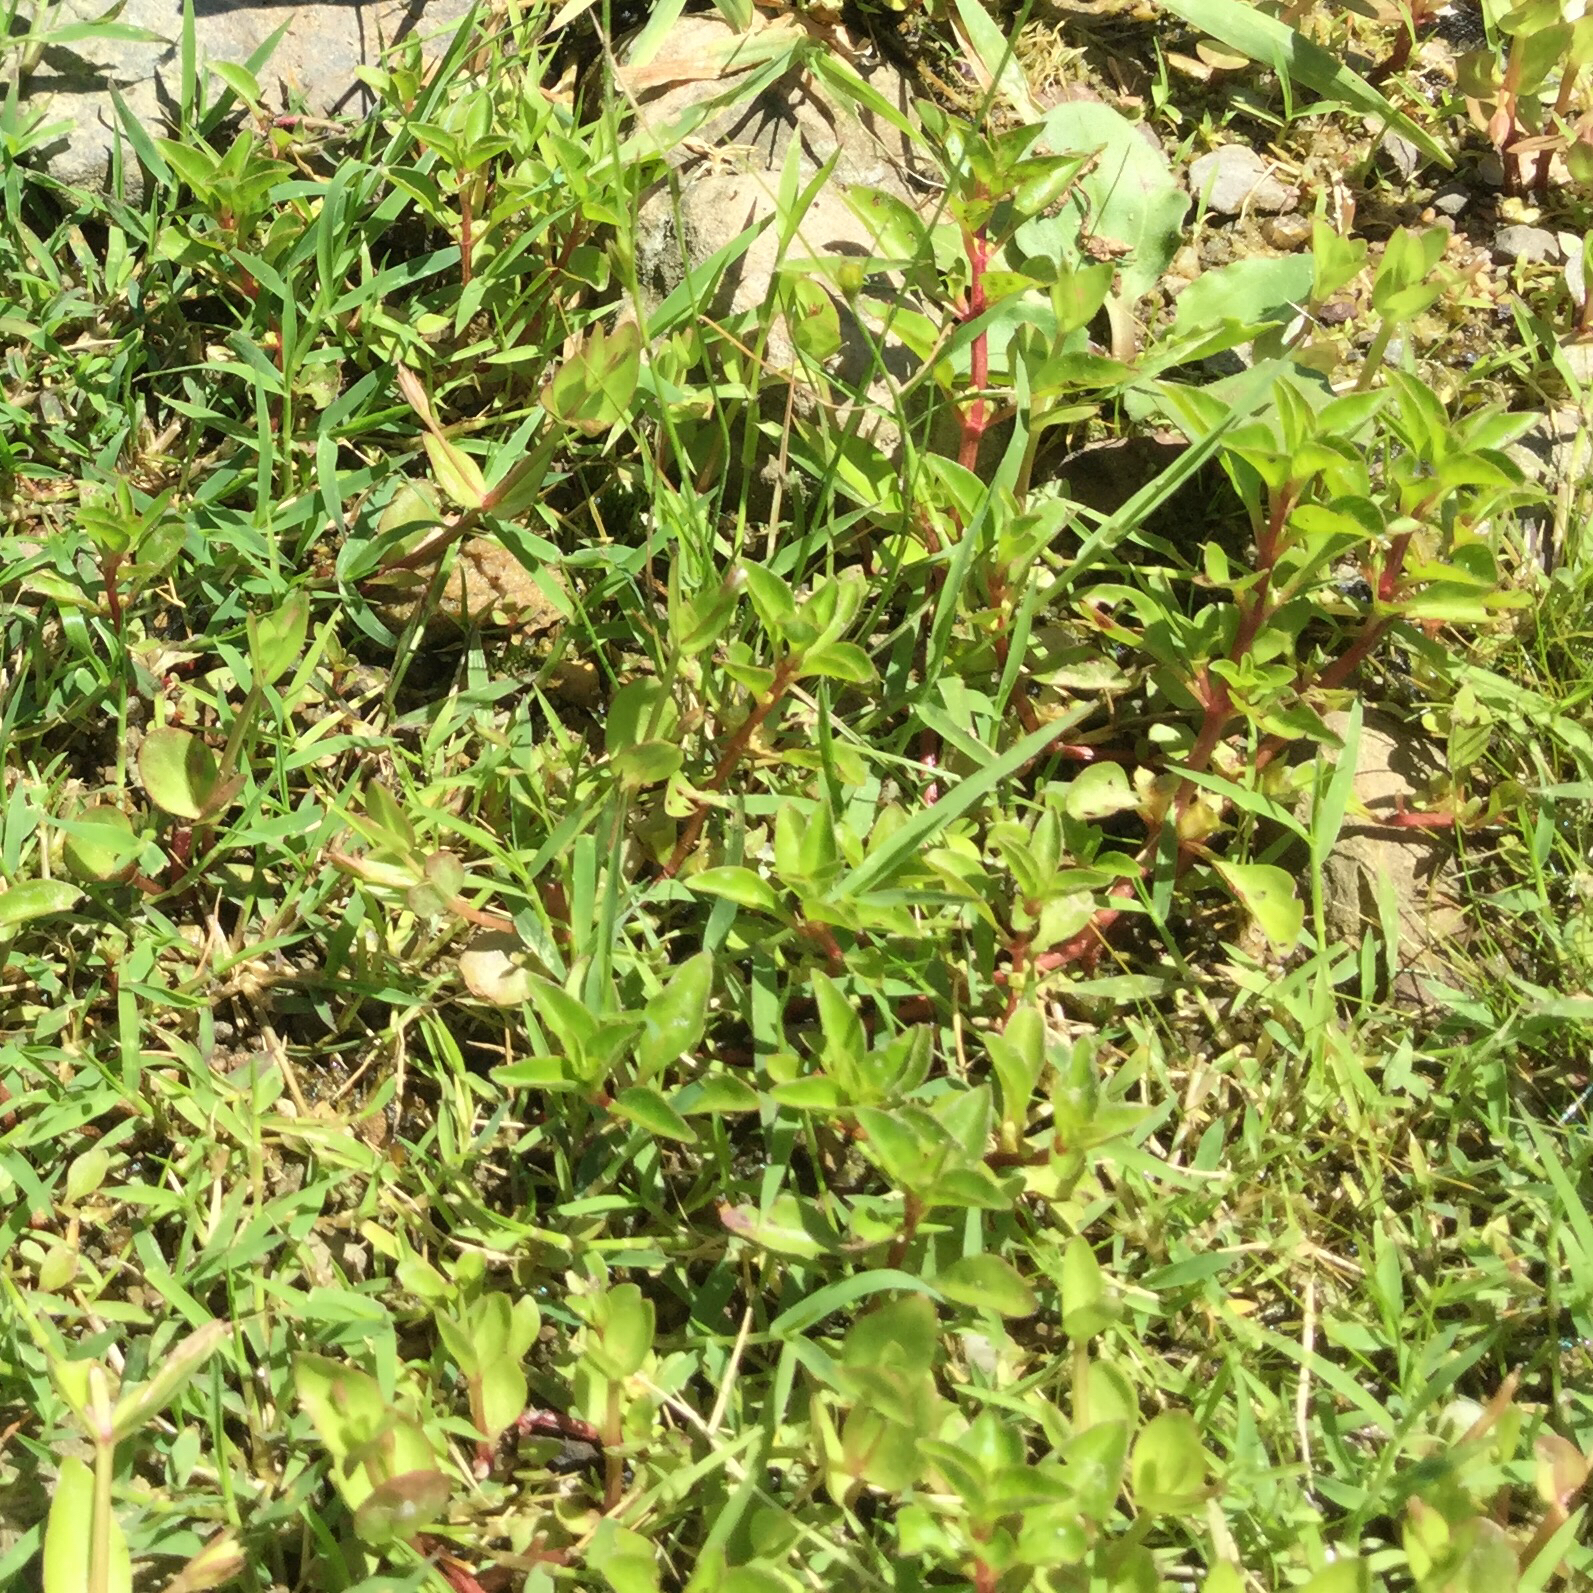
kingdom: Plantae
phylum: Tracheophyta
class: Magnoliopsida
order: Lamiales
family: Linderniaceae
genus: Lindernia
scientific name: Lindernia dubia
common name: Annual false pimpernel
